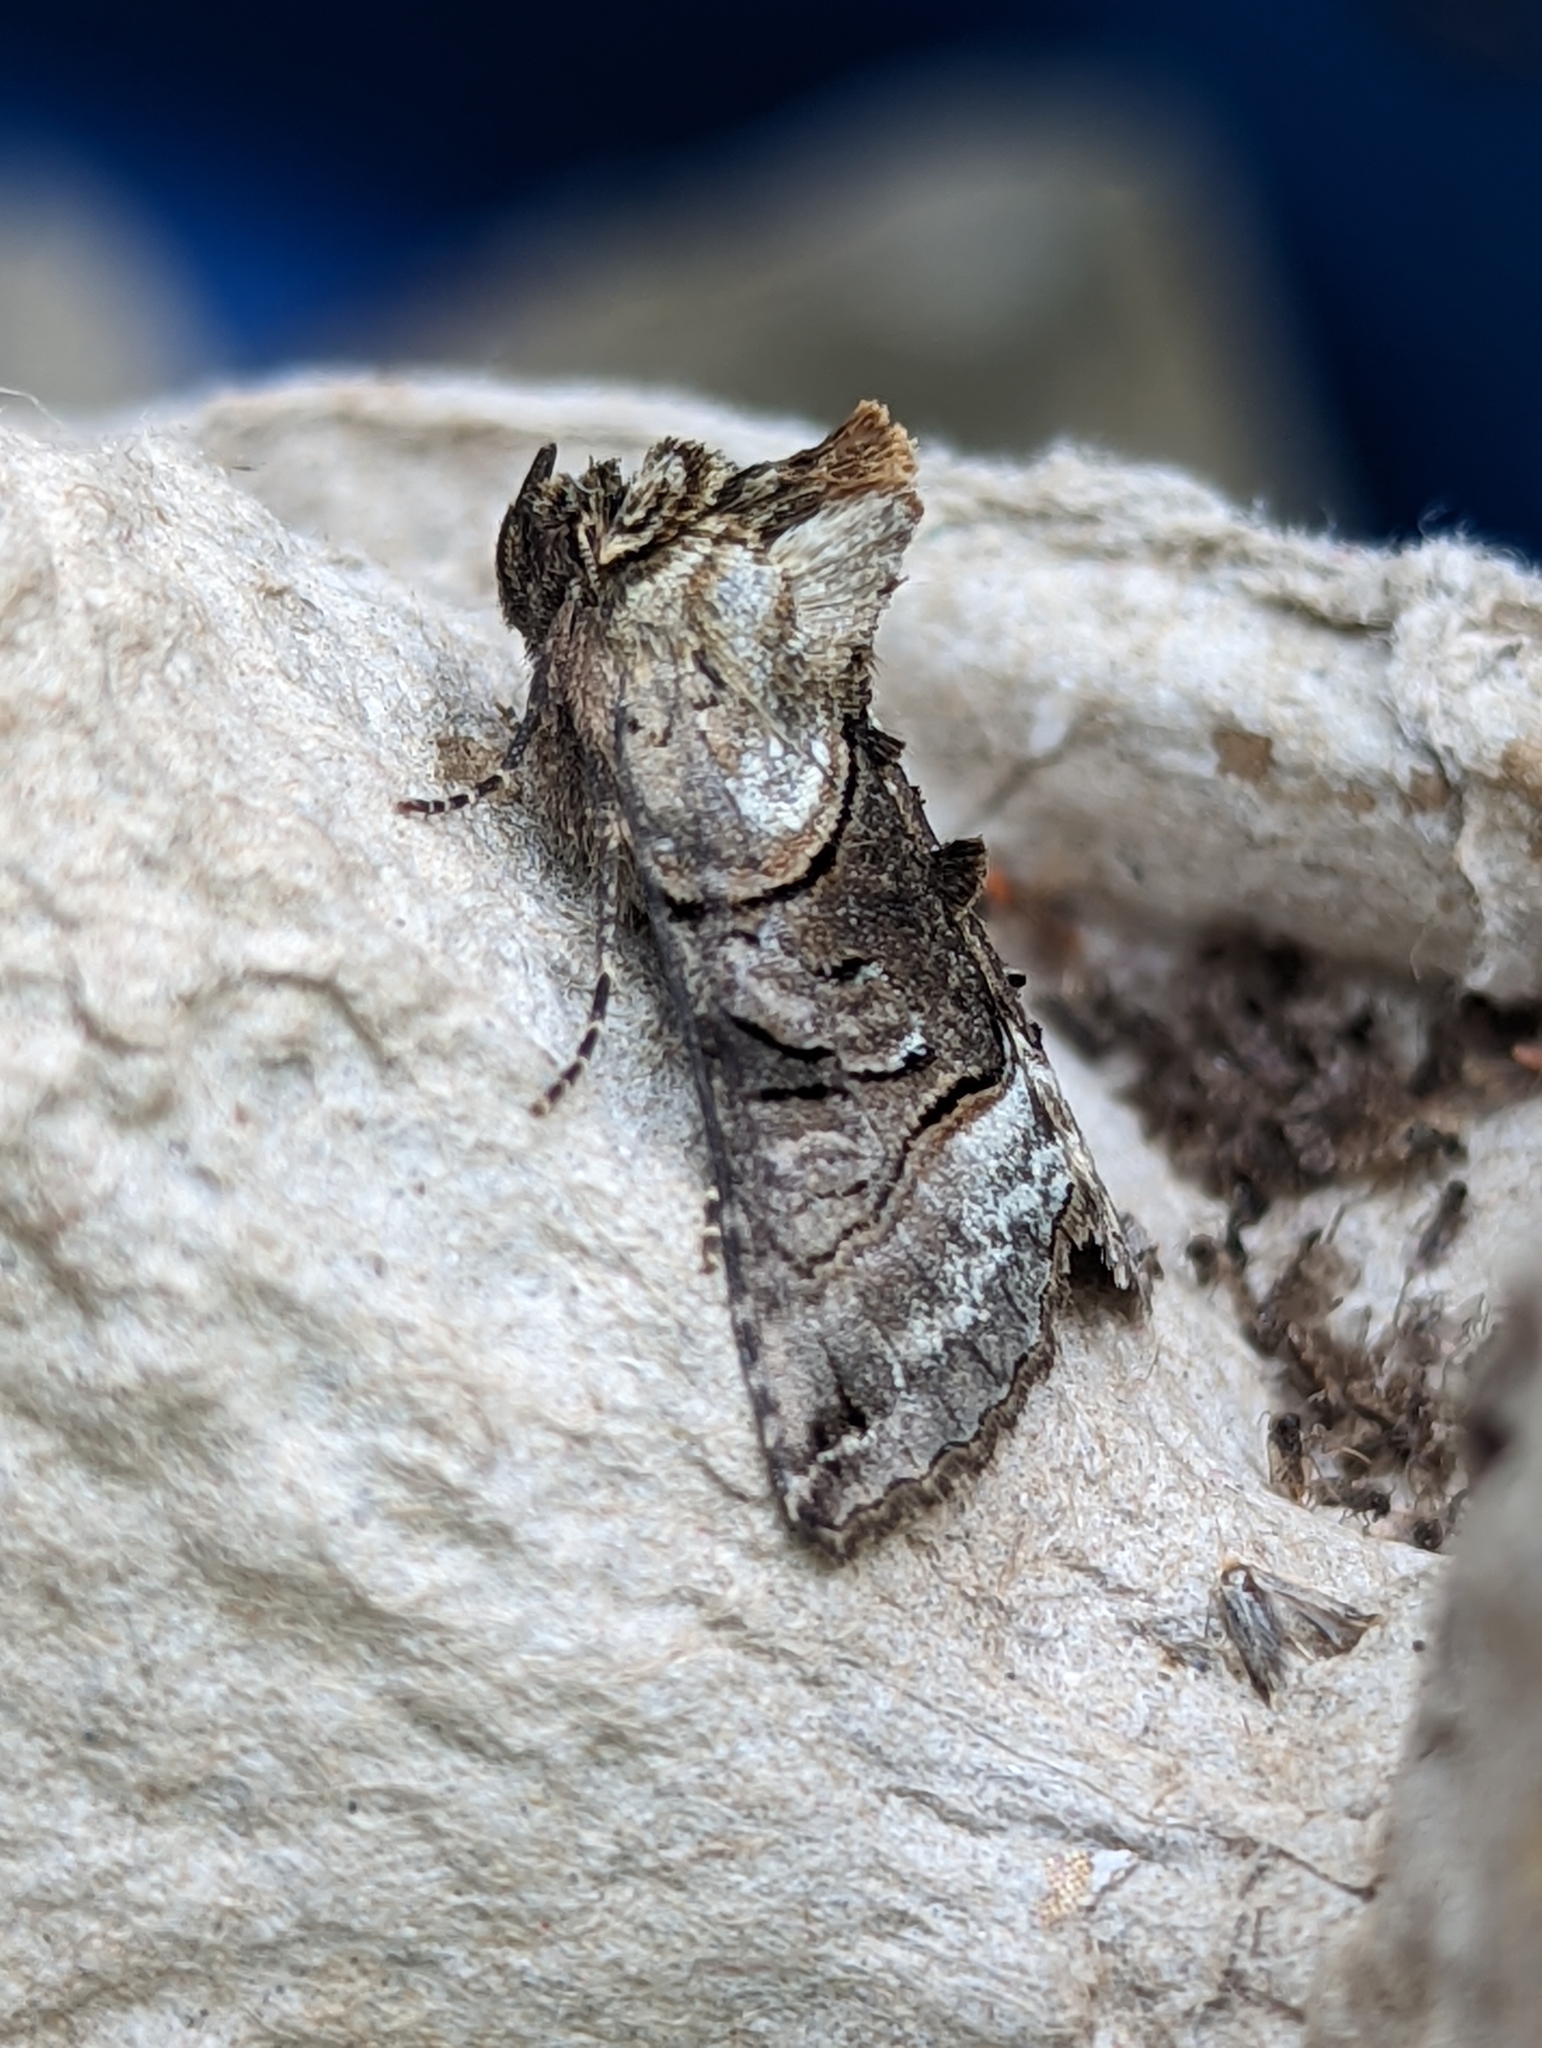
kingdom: Animalia
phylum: Arthropoda
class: Insecta
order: Lepidoptera
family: Noctuidae
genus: Abrostola
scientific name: Abrostola tripartita
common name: Spectacle
